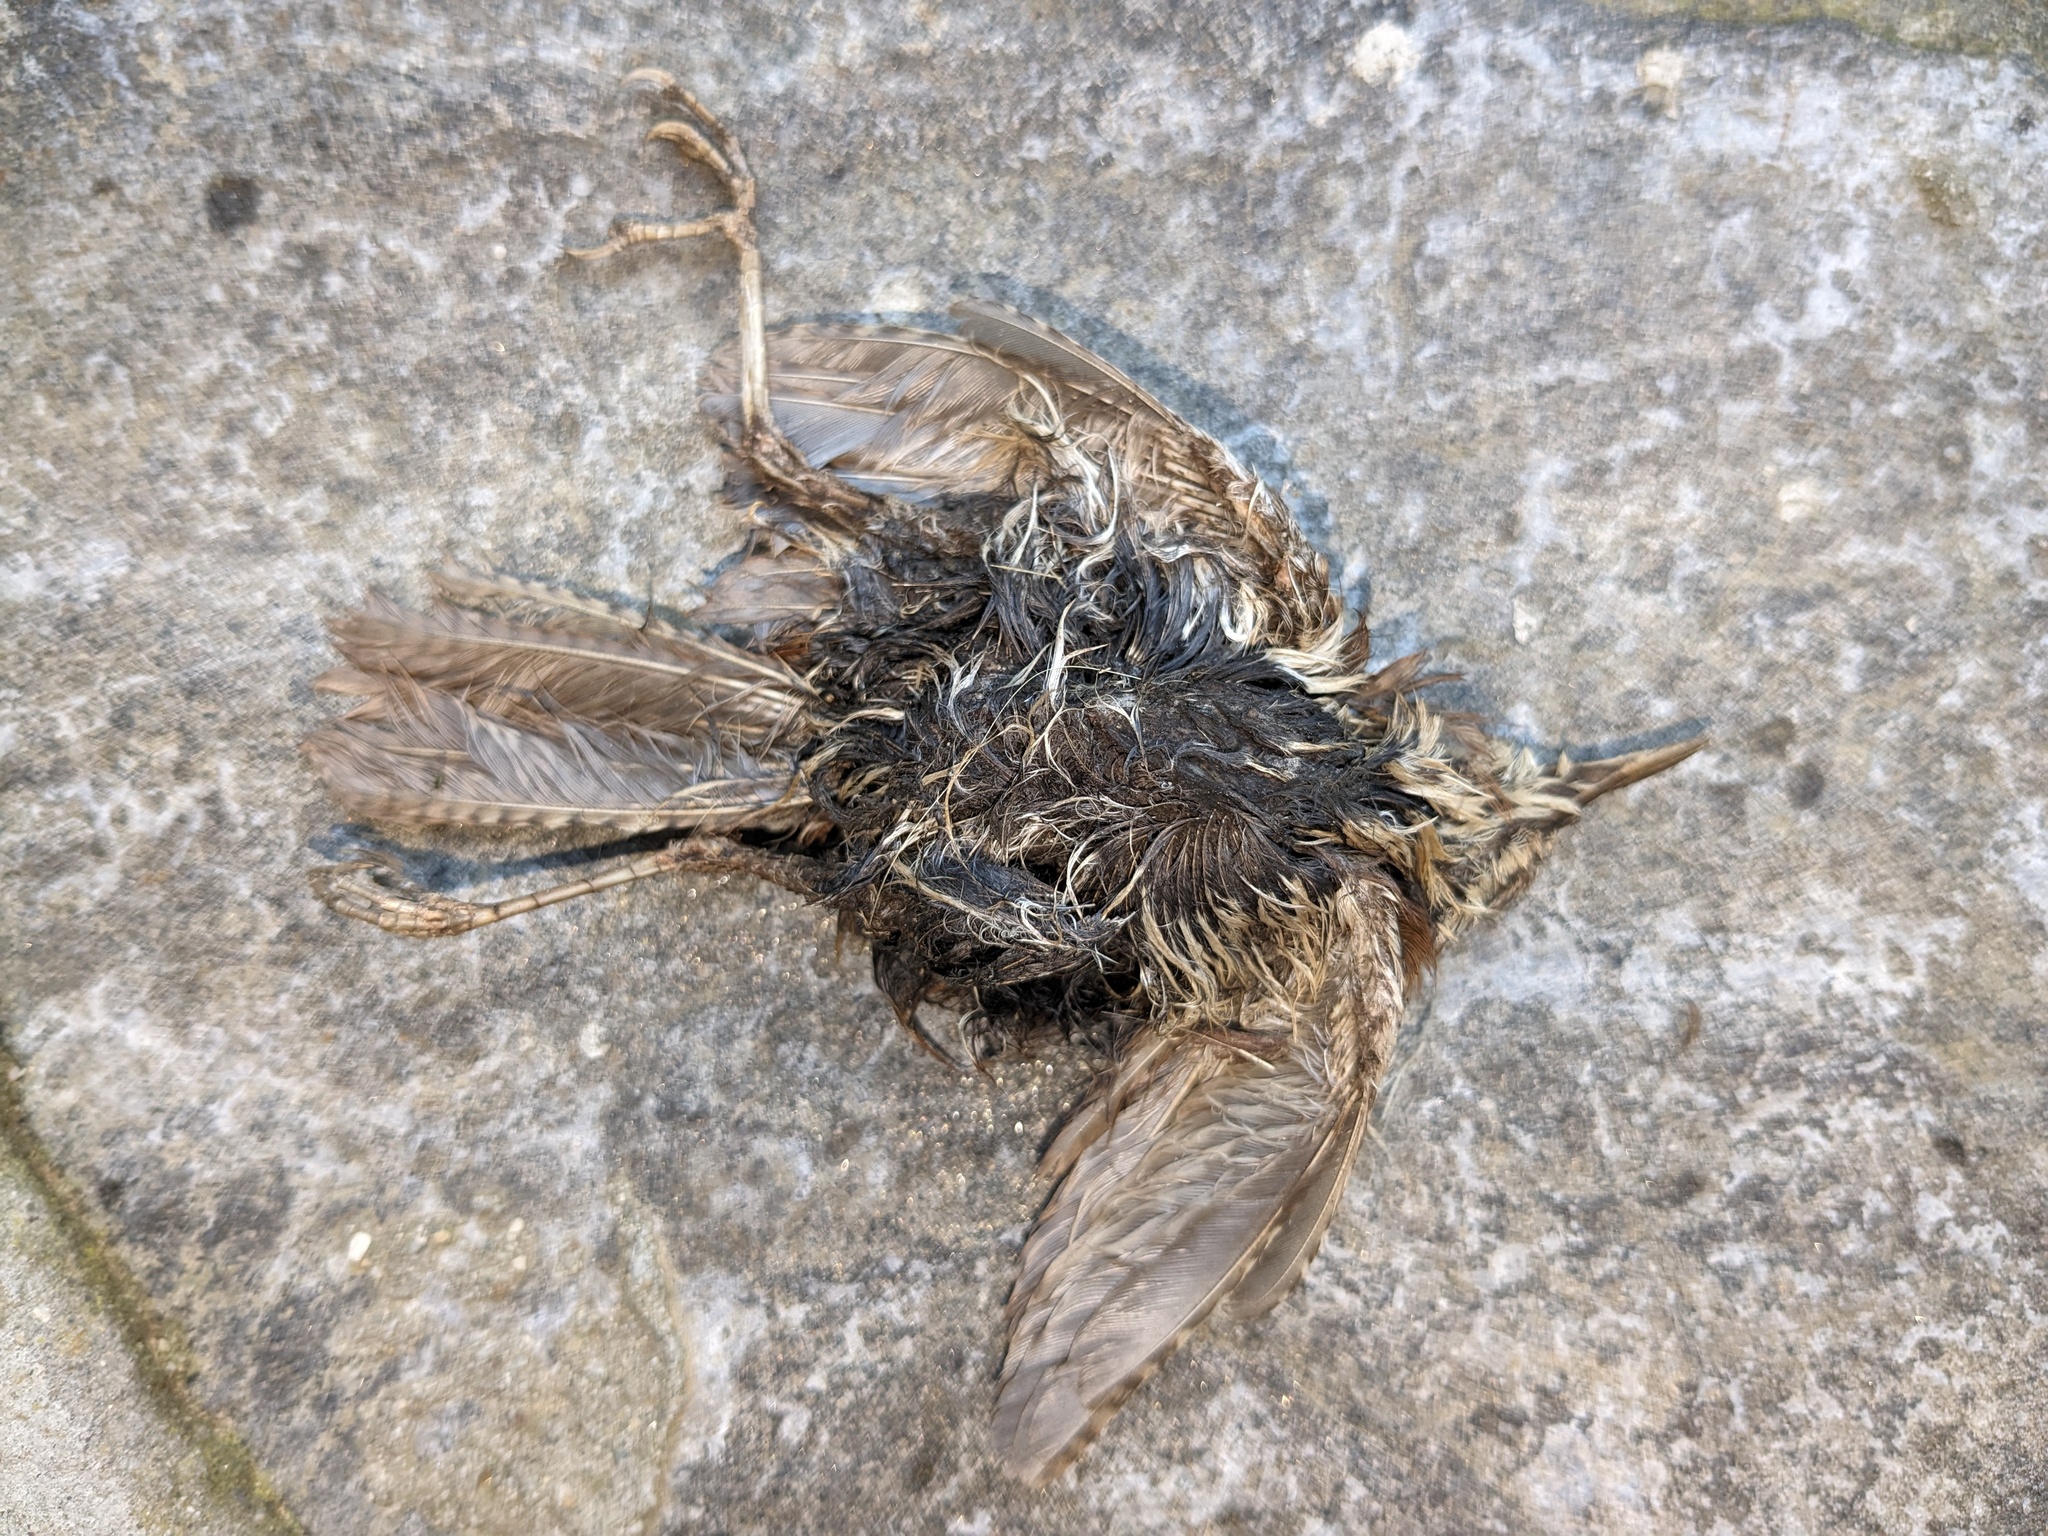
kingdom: Animalia
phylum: Chordata
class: Aves
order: Passeriformes
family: Troglodytidae
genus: Thryothorus
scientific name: Thryothorus ludovicianus
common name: Carolina wren
